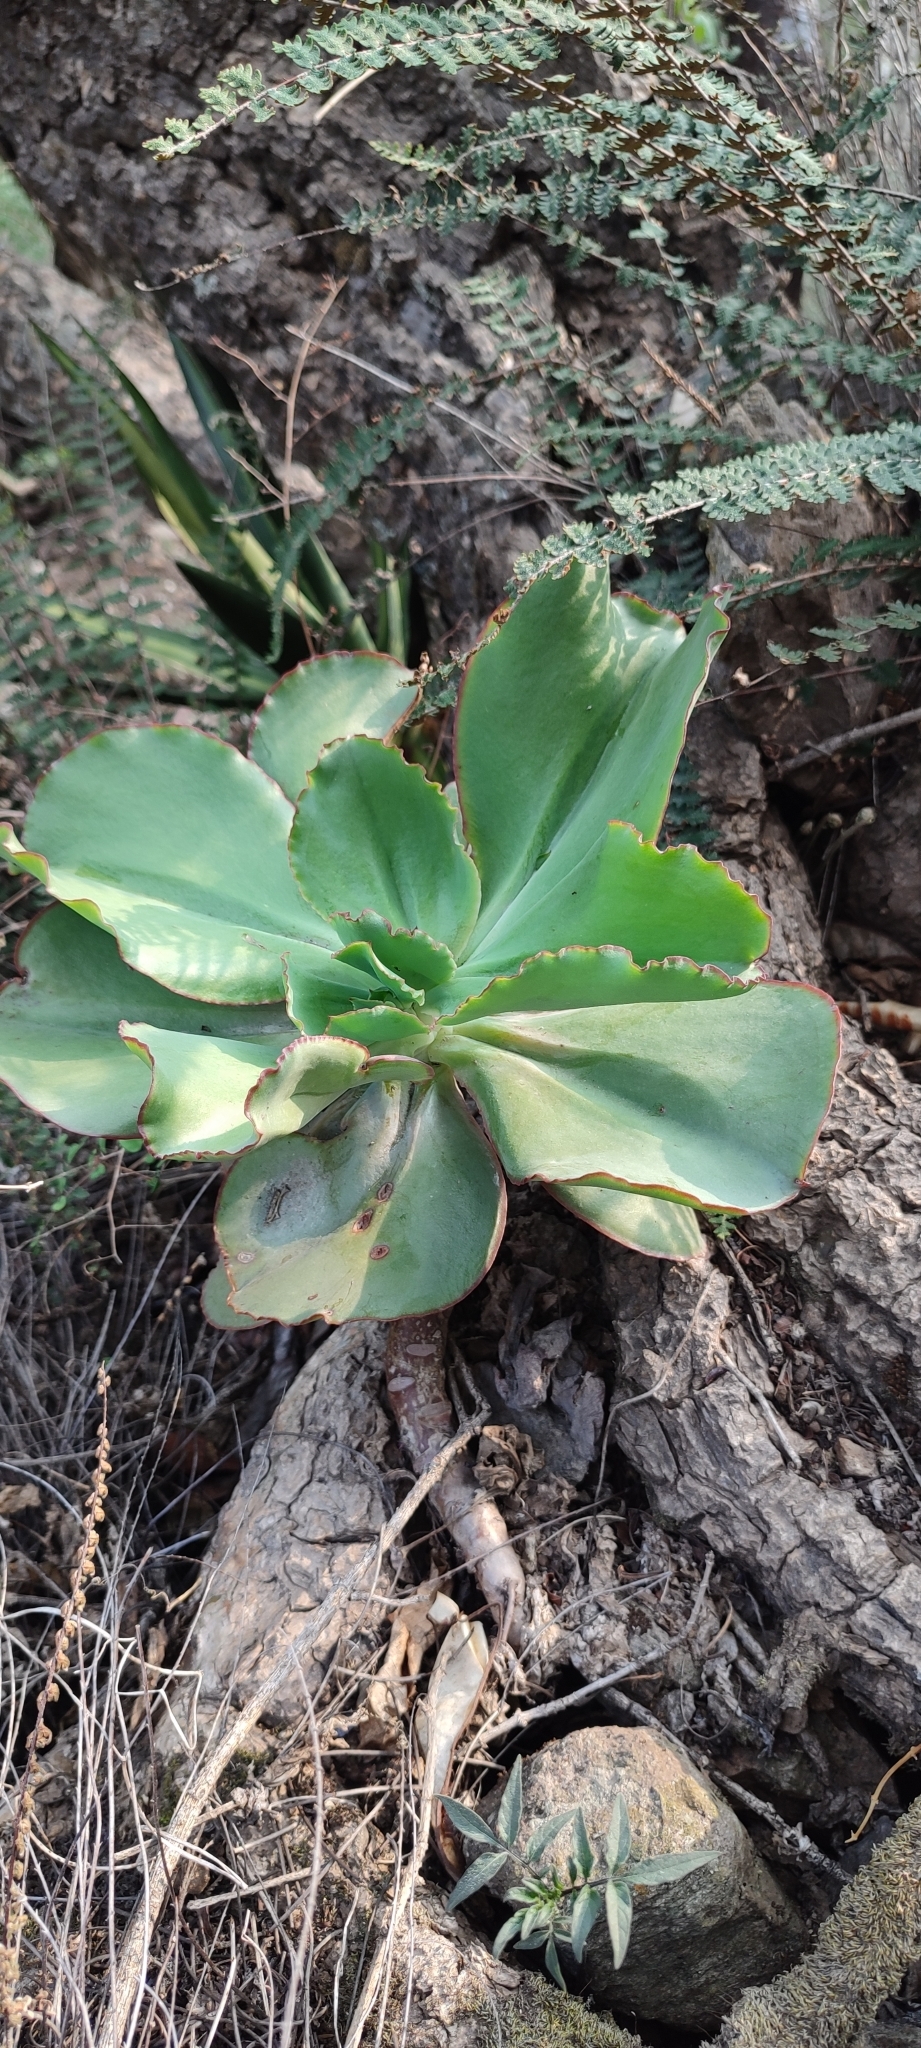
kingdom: Plantae
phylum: Tracheophyta
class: Magnoliopsida
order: Saxifragales
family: Crassulaceae
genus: Echeveria
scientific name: Echeveria gigantea
